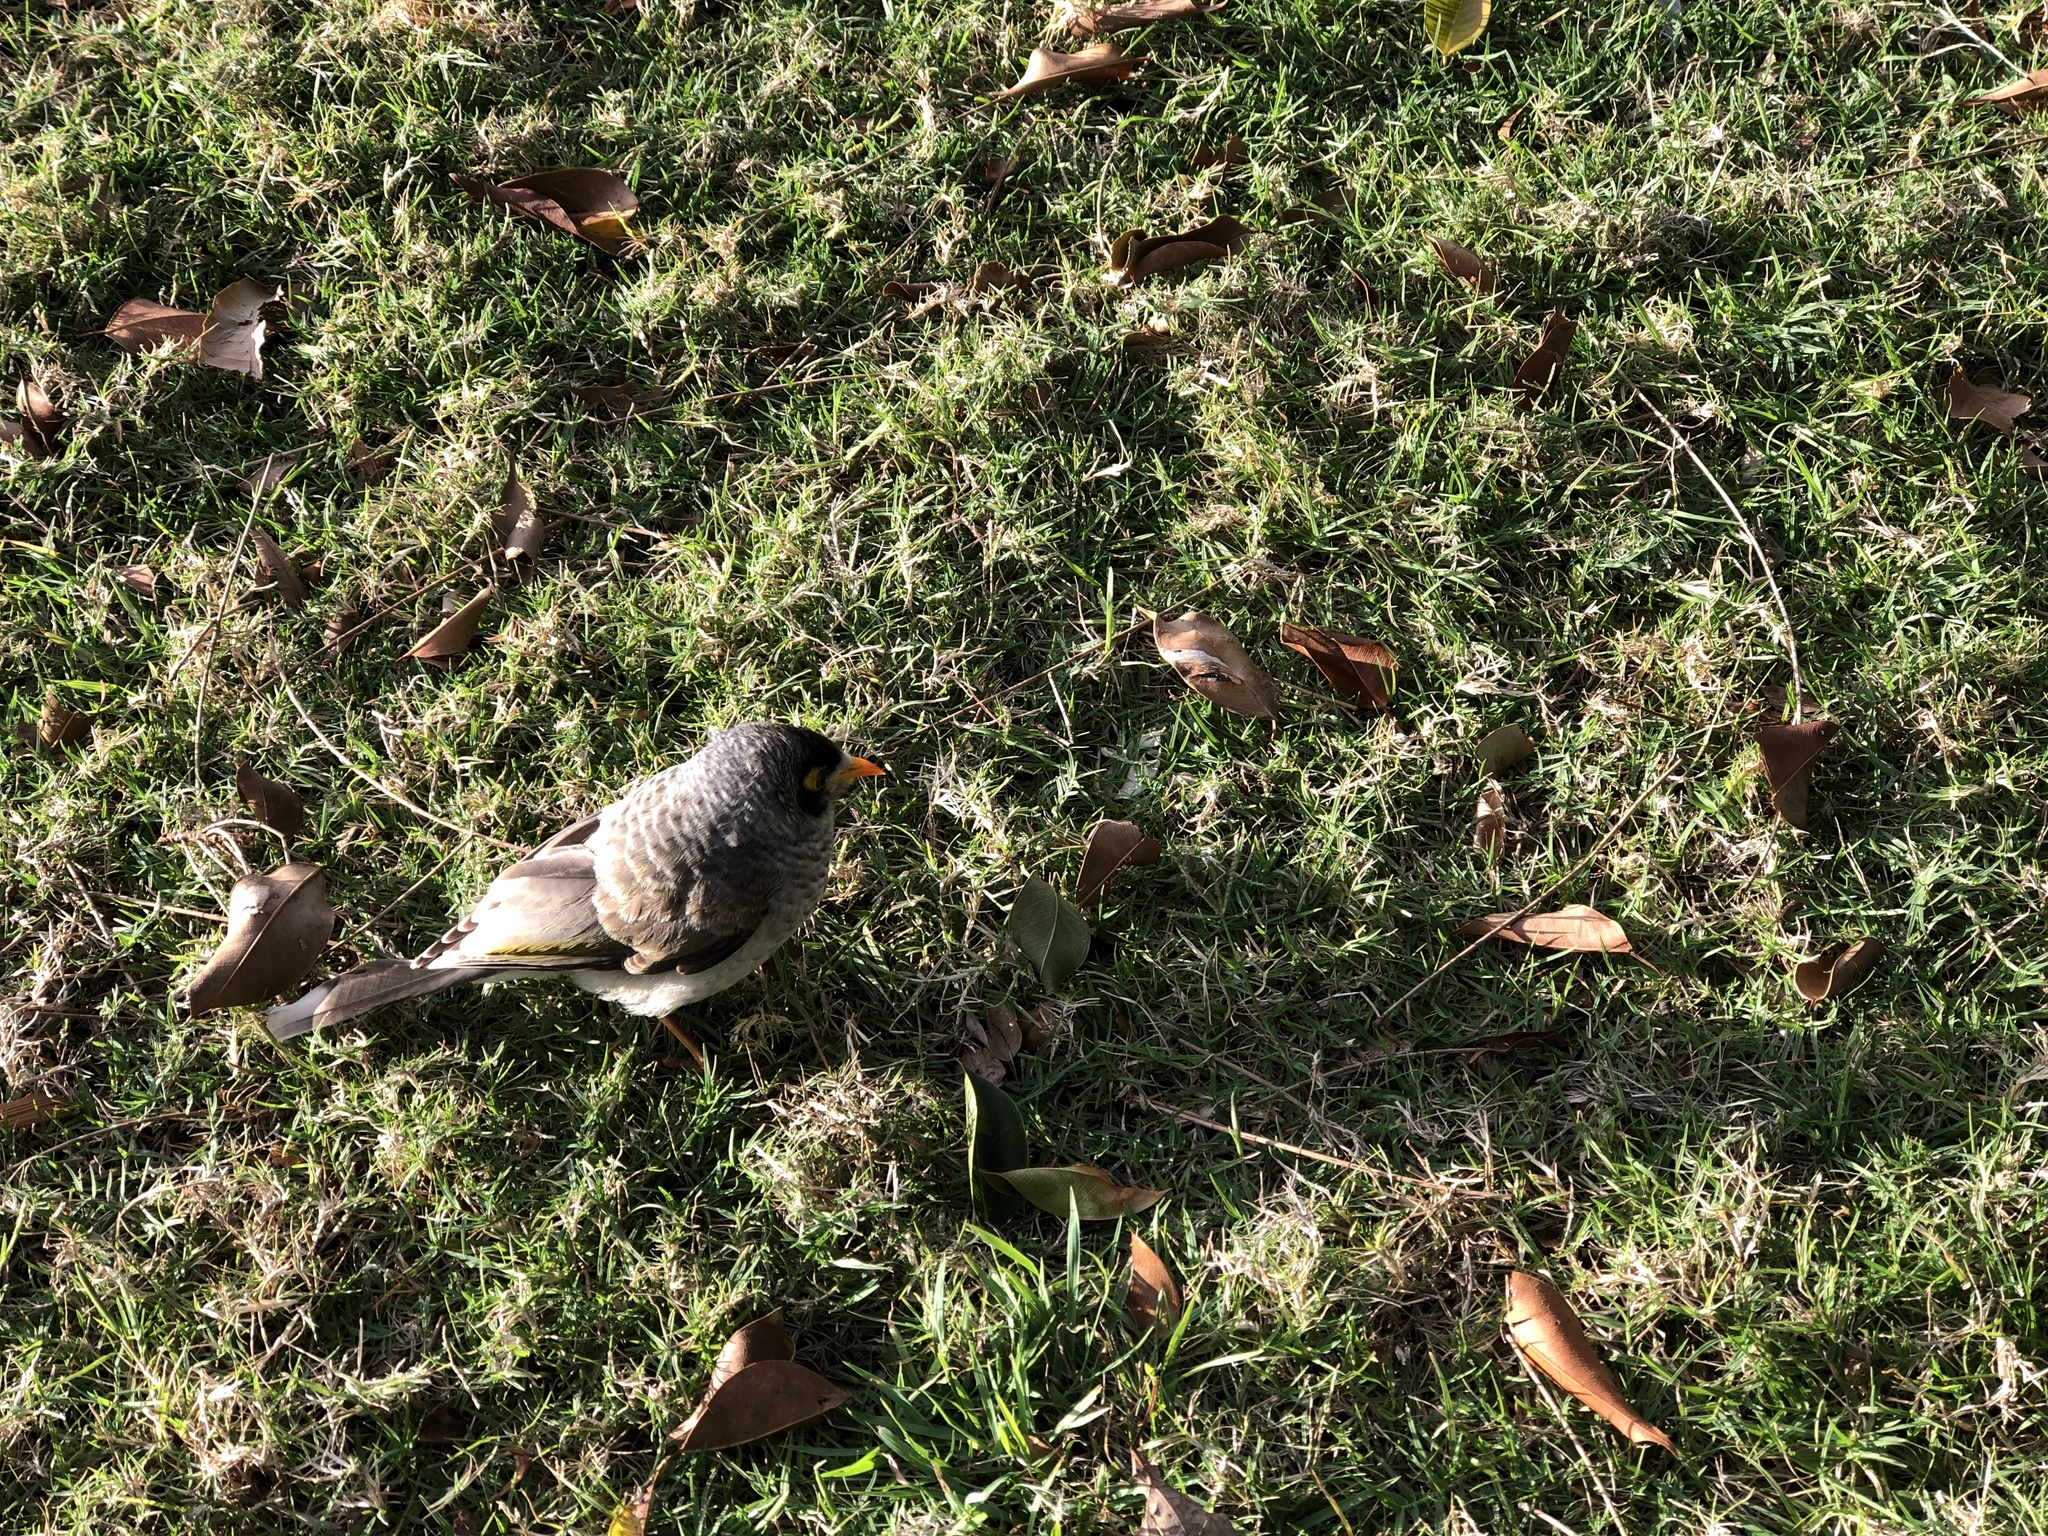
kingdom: Animalia
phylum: Chordata
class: Aves
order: Passeriformes
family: Meliphagidae
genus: Manorina
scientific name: Manorina melanocephala
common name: Noisy miner
